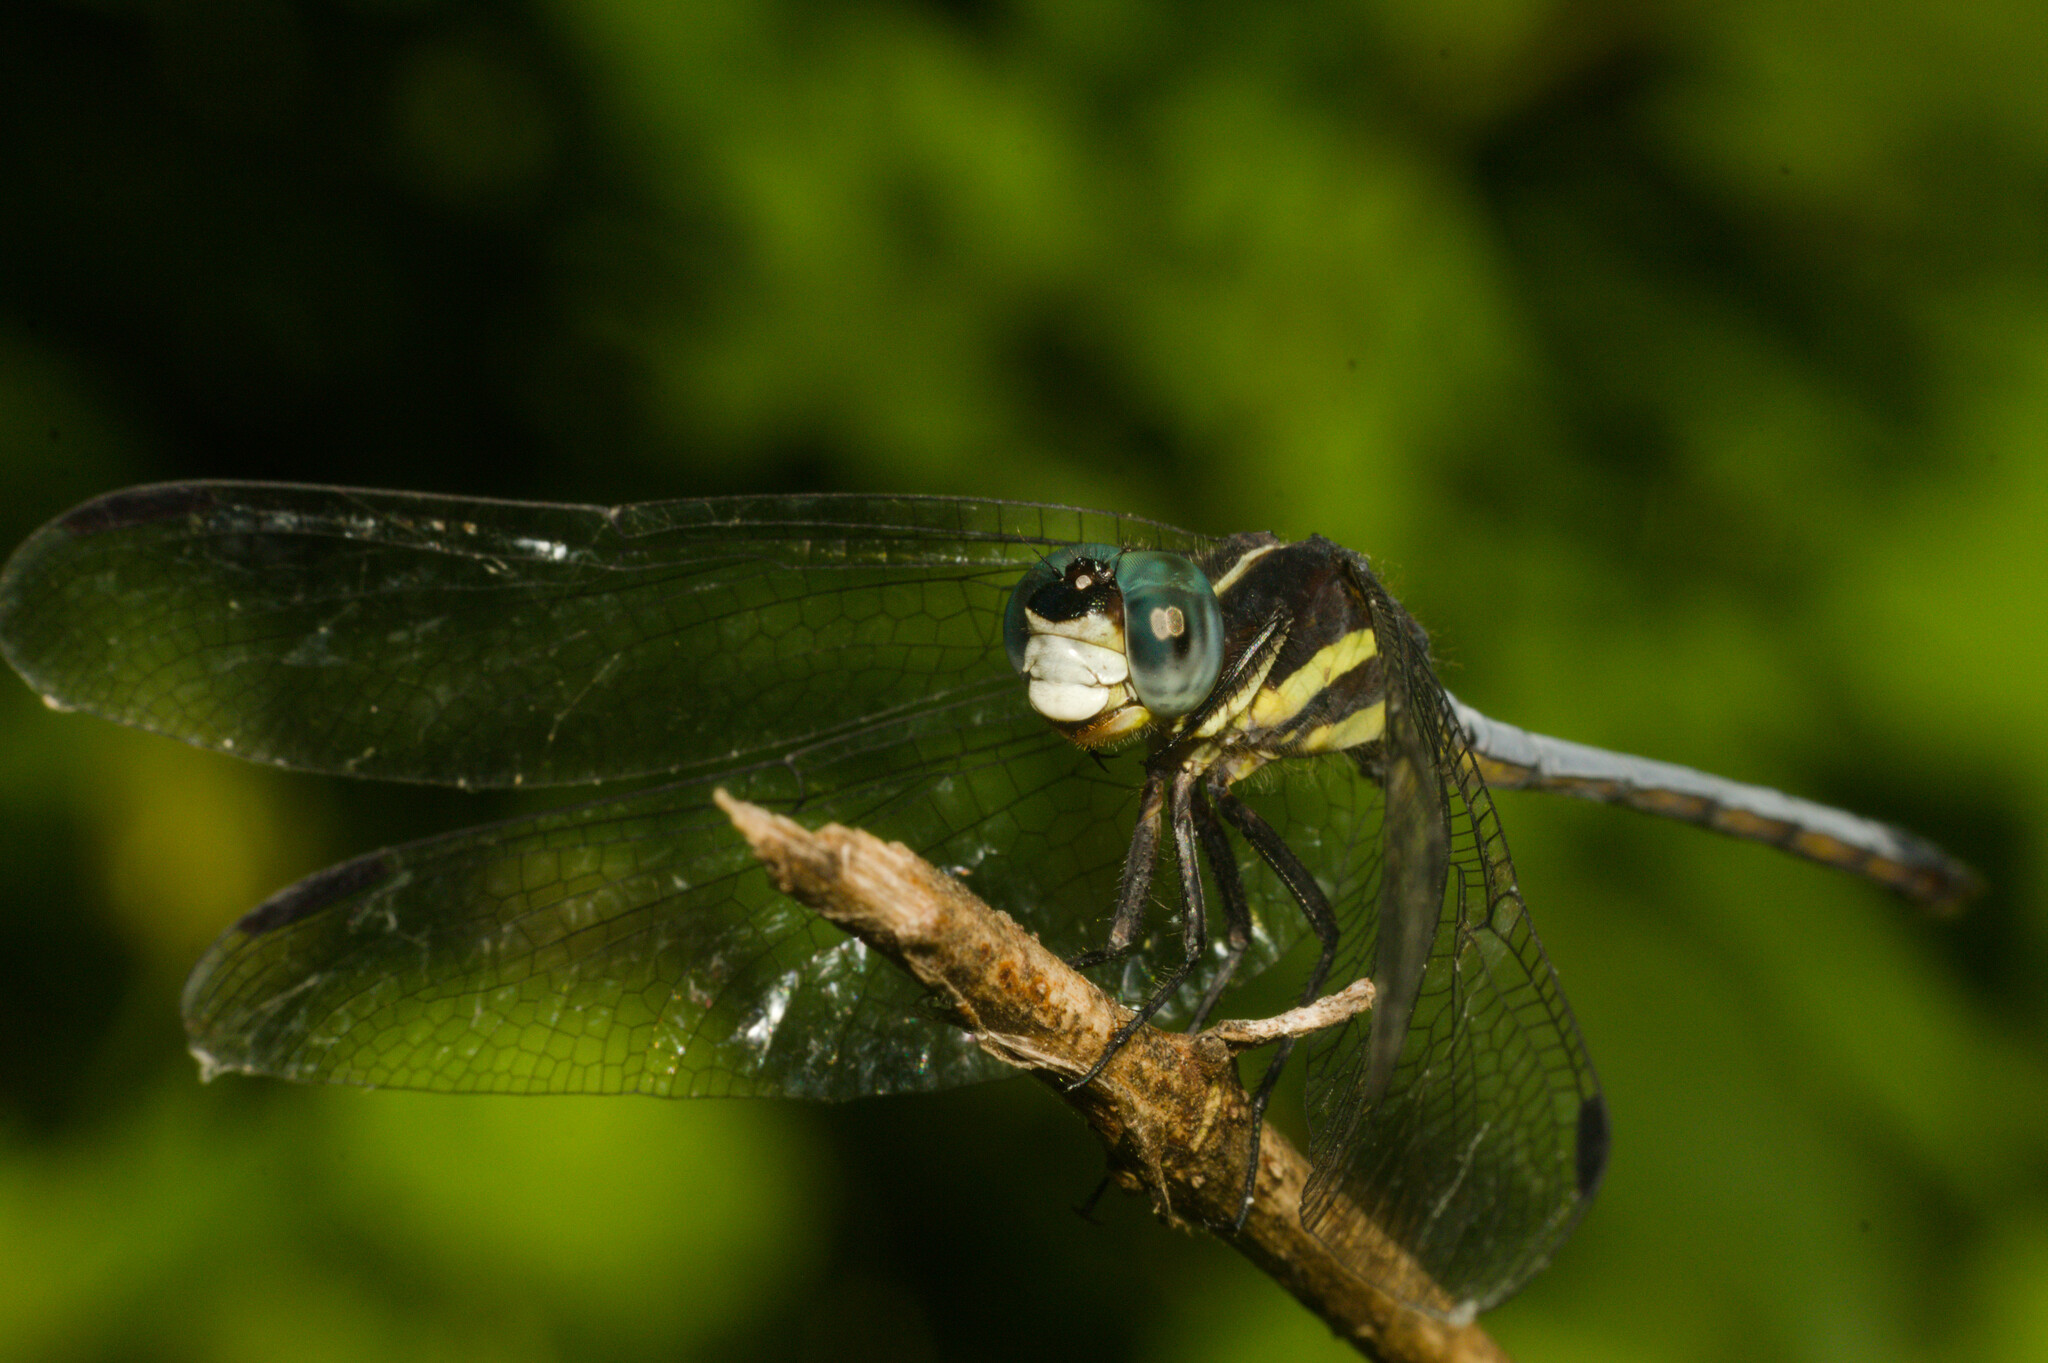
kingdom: Animalia
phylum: Arthropoda
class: Insecta
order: Odonata
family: Libellulidae
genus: Dasythemis
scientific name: Dasythemis mincki
